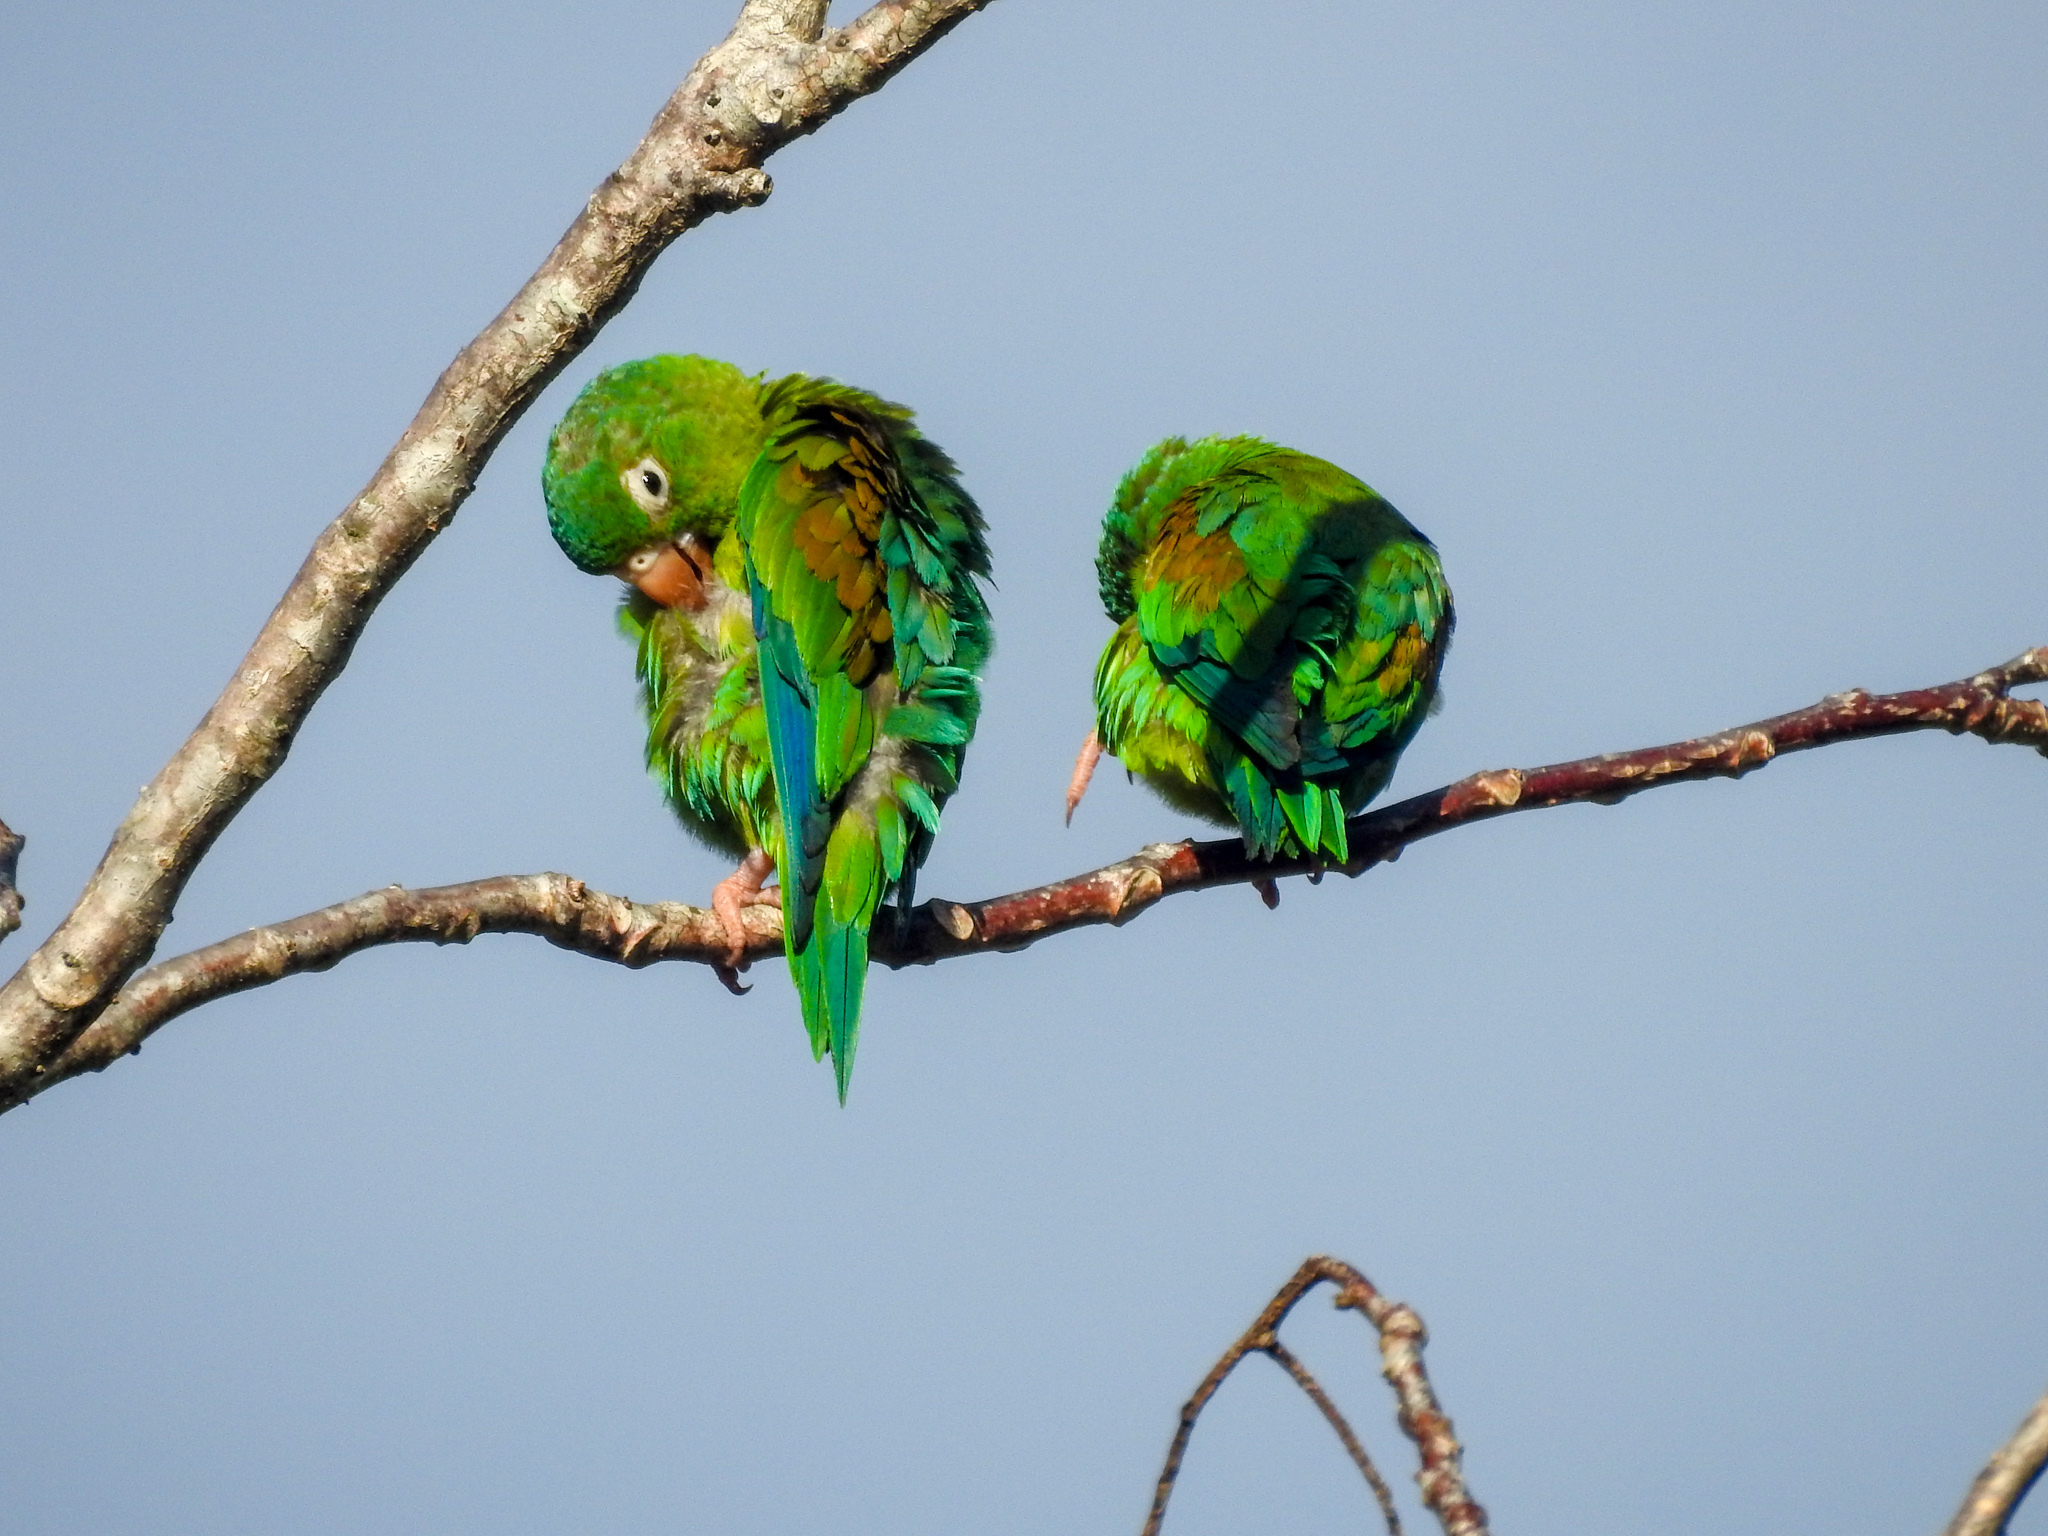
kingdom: Animalia
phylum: Chordata
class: Aves
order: Psittaciformes
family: Psittacidae
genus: Brotogeris
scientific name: Brotogeris jugularis
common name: Orange-chinned parakeet
